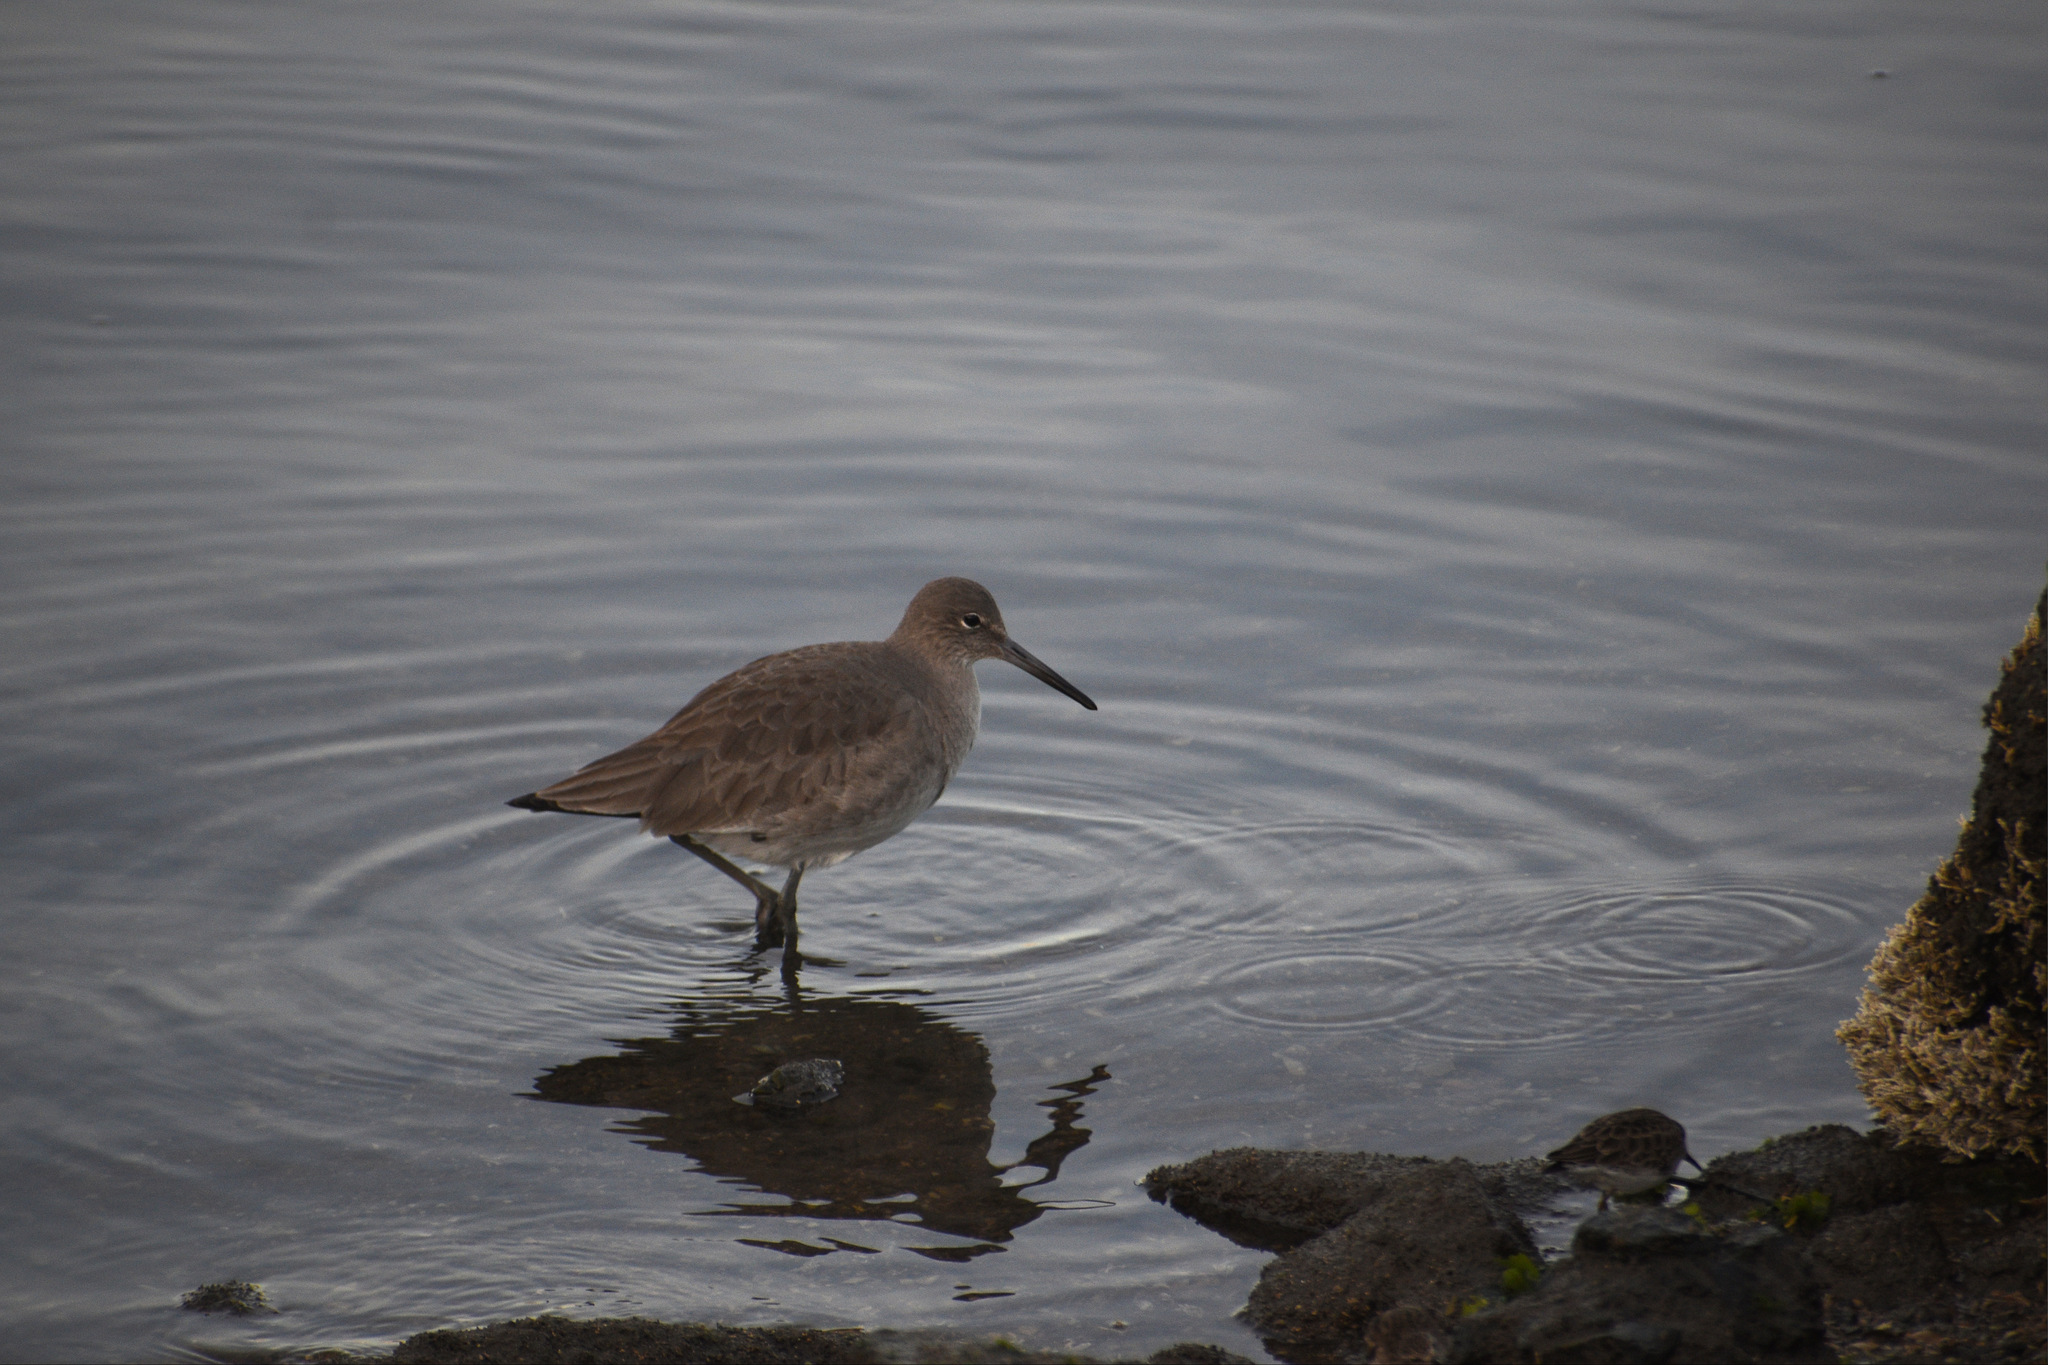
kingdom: Animalia
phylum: Chordata
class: Aves
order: Charadriiformes
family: Scolopacidae
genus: Tringa
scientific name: Tringa semipalmata
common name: Willet
